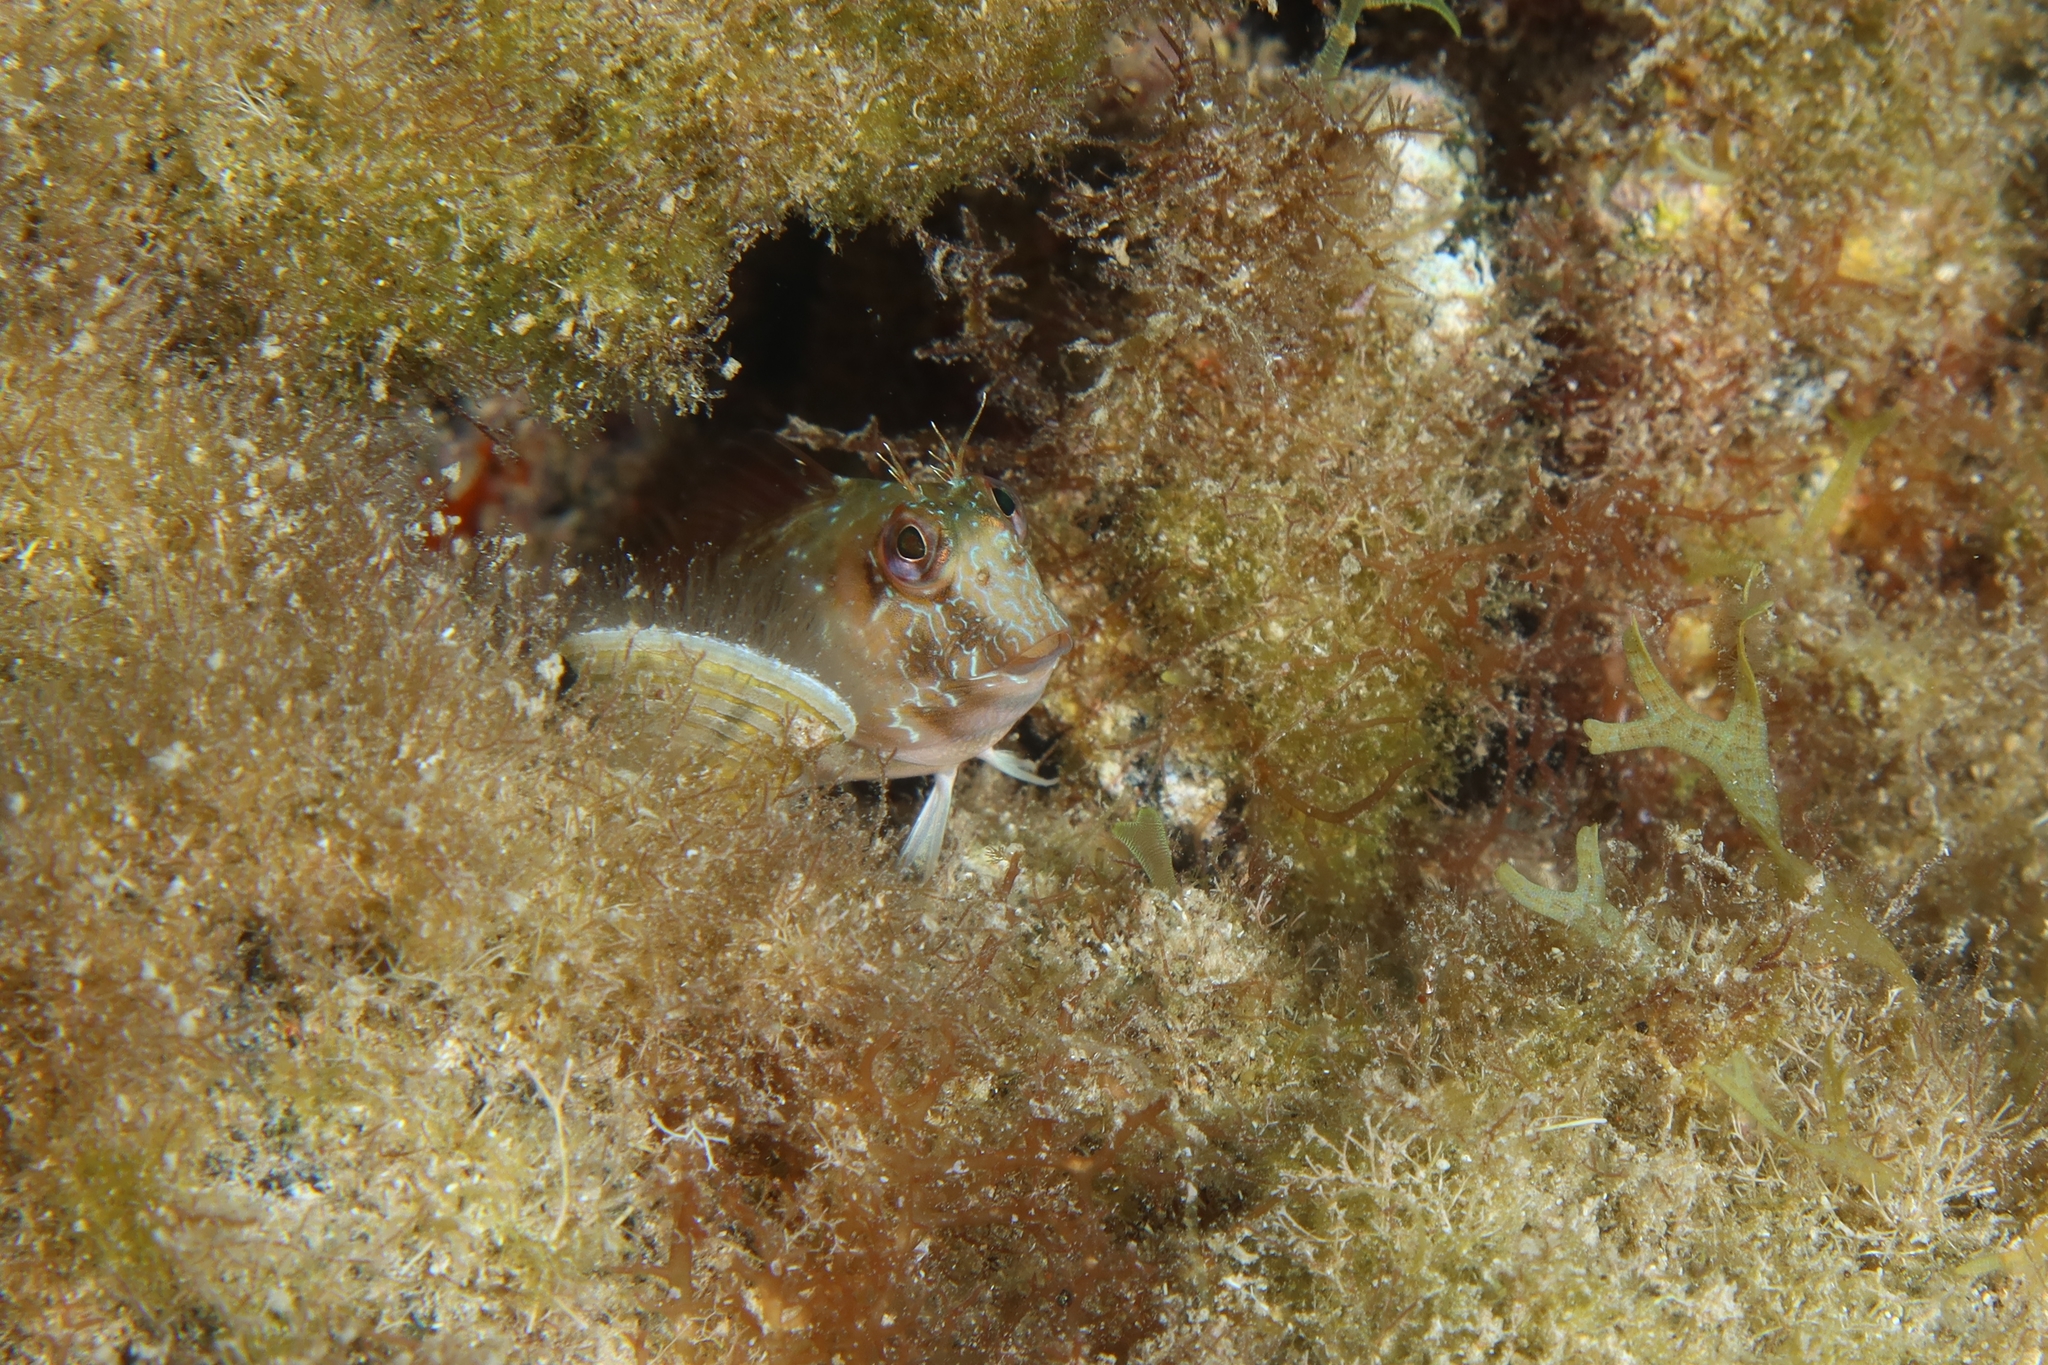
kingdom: Animalia
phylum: Chordata
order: Perciformes
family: Blenniidae
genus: Parablennius
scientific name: Parablennius goreensis
